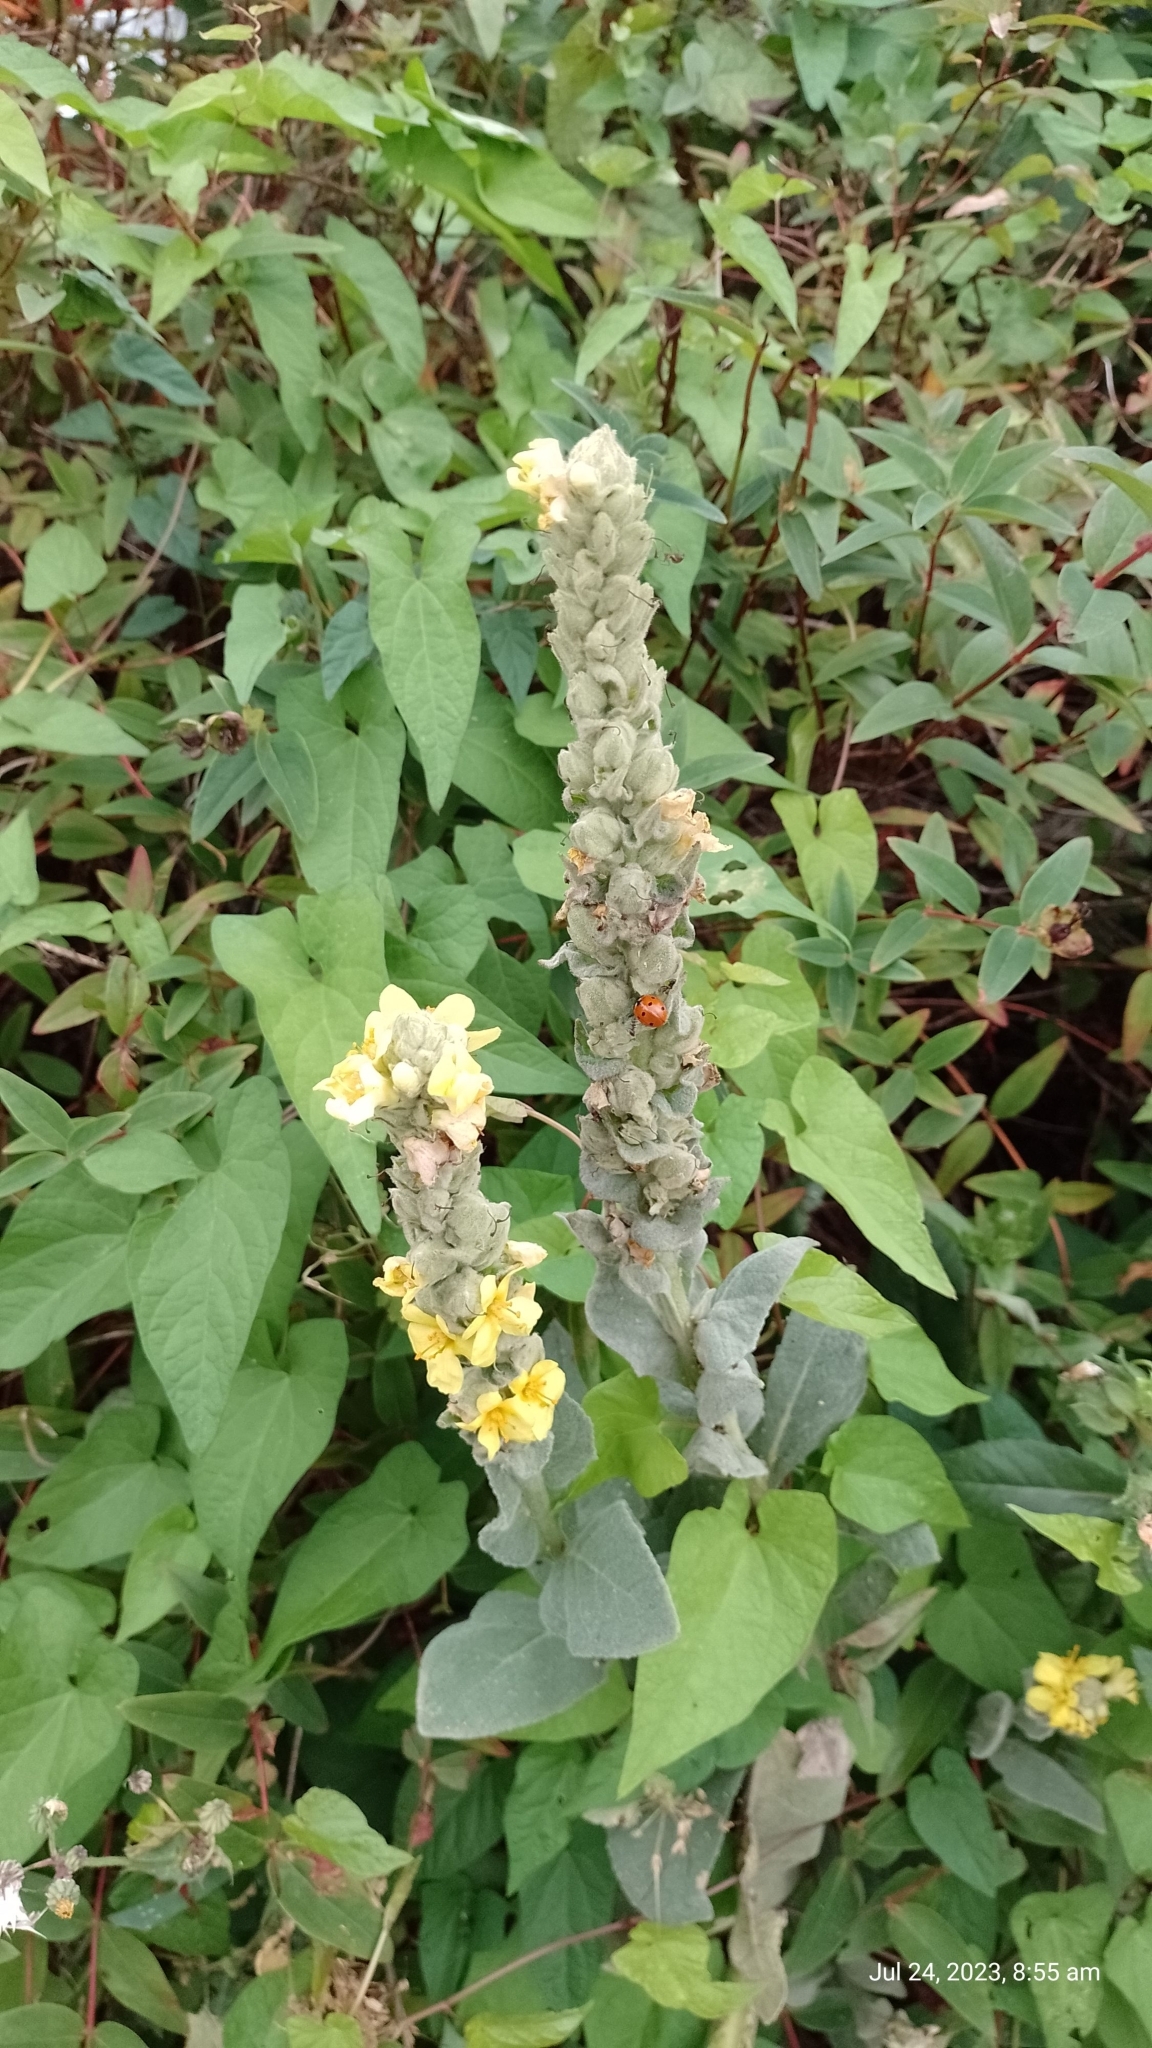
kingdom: Plantae
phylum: Tracheophyta
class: Magnoliopsida
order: Lamiales
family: Scrophulariaceae
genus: Verbascum
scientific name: Verbascum thapsus
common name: Common mullein
